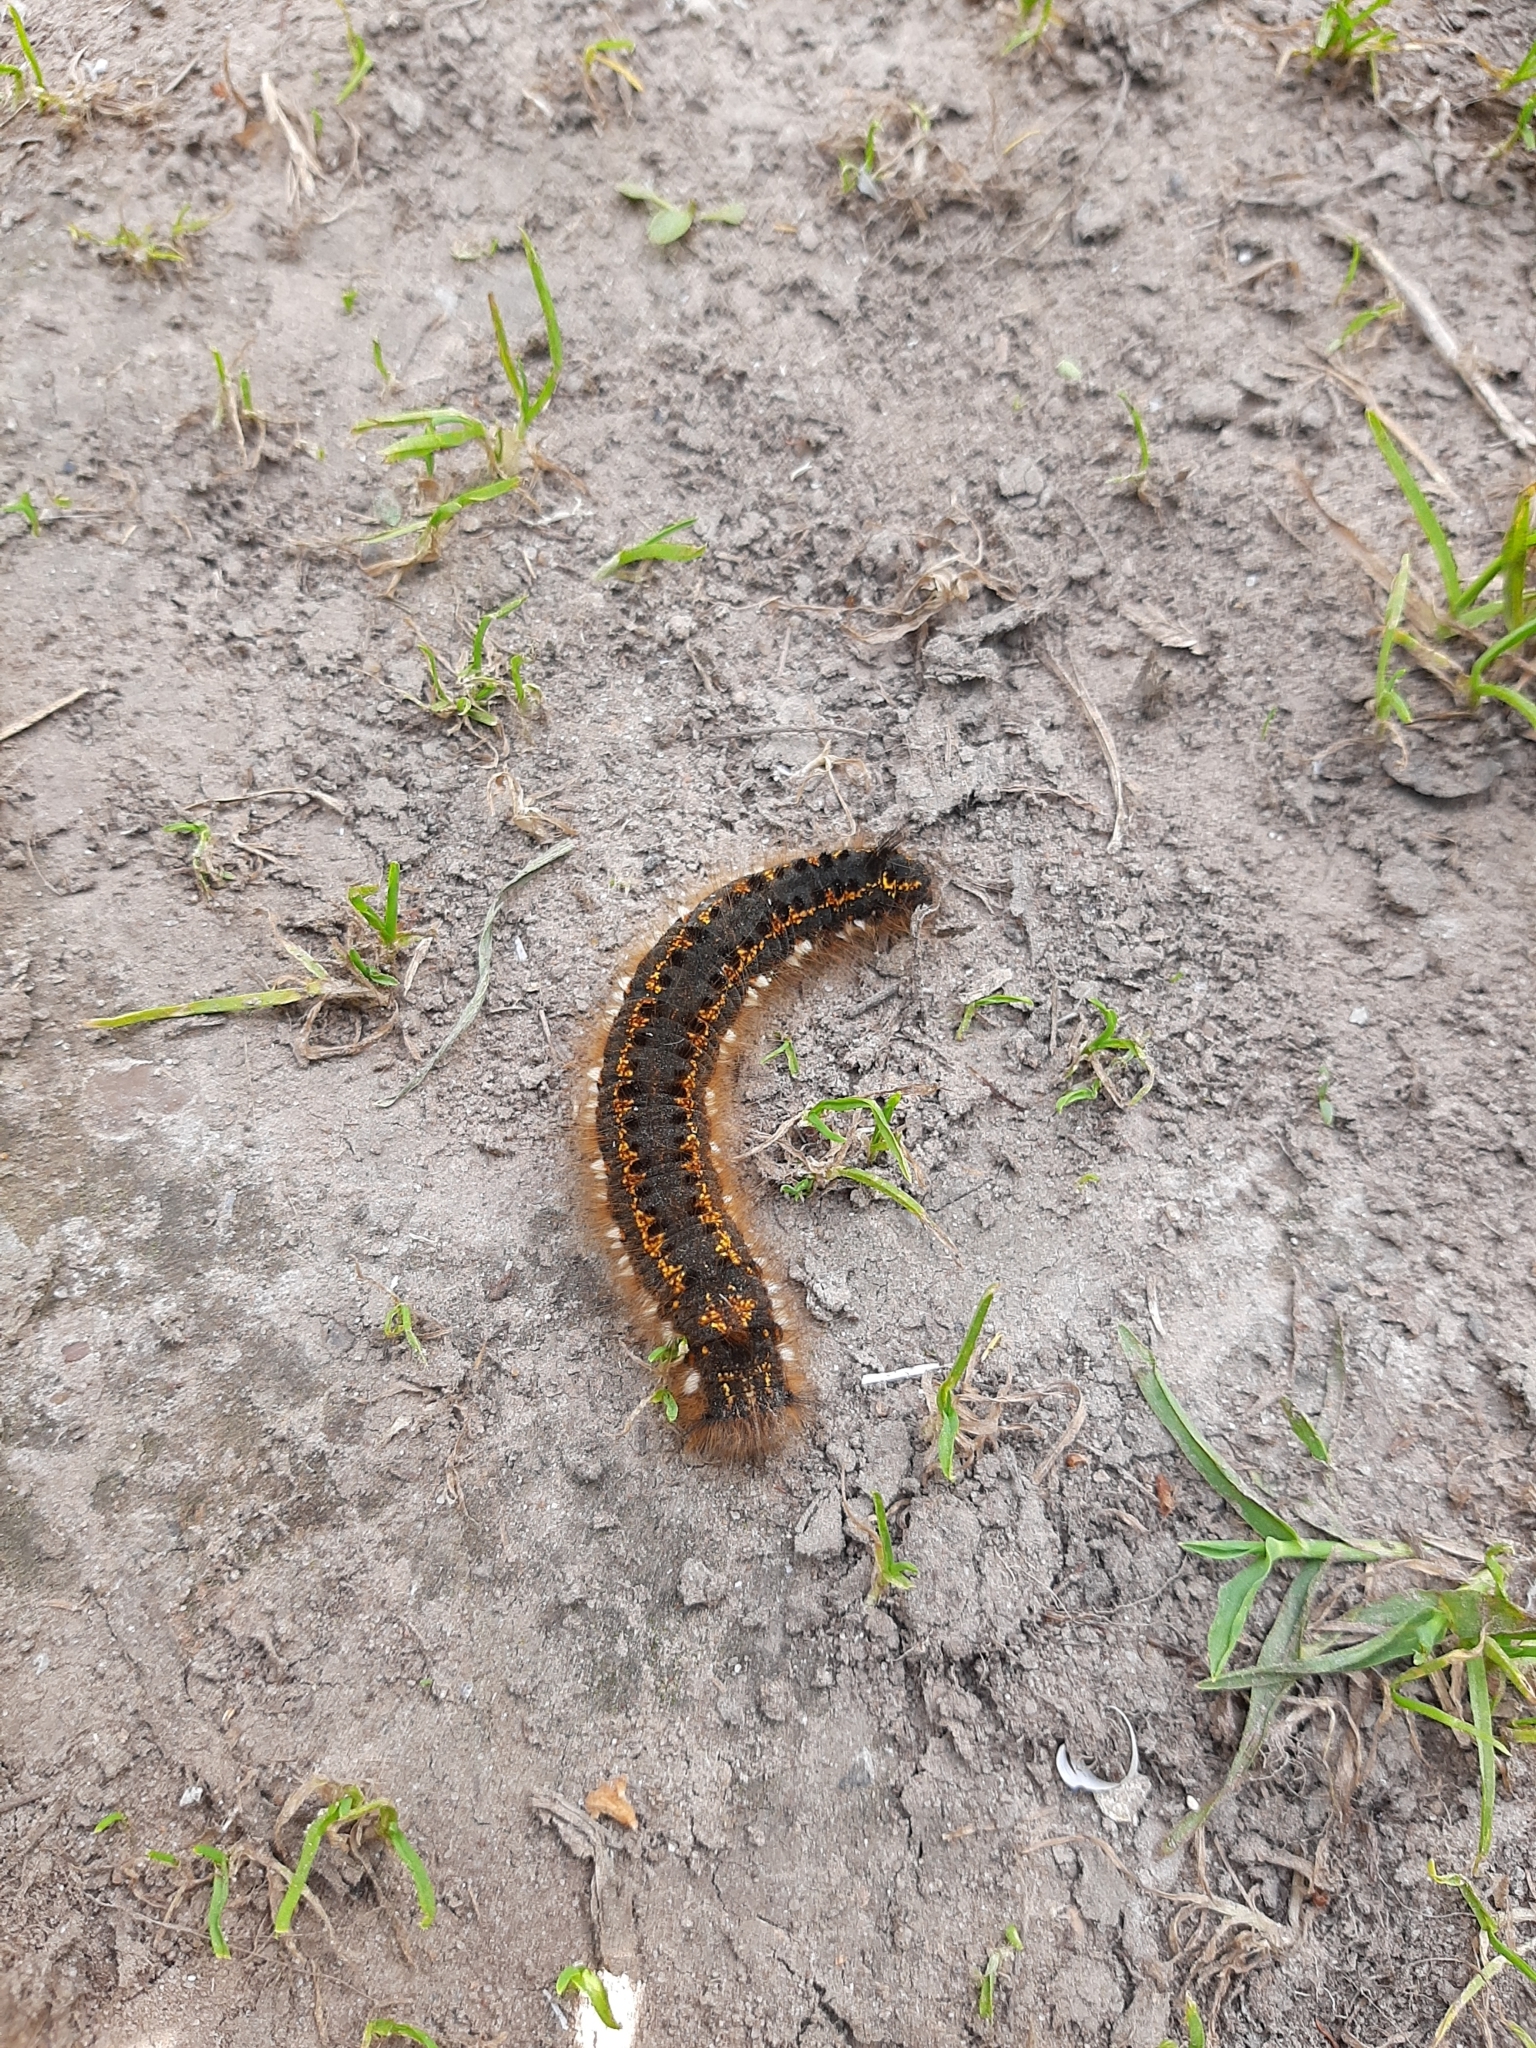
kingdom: Animalia
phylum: Arthropoda
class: Insecta
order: Lepidoptera
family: Lasiocampidae
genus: Euthrix
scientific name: Euthrix potatoria
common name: Drinker
